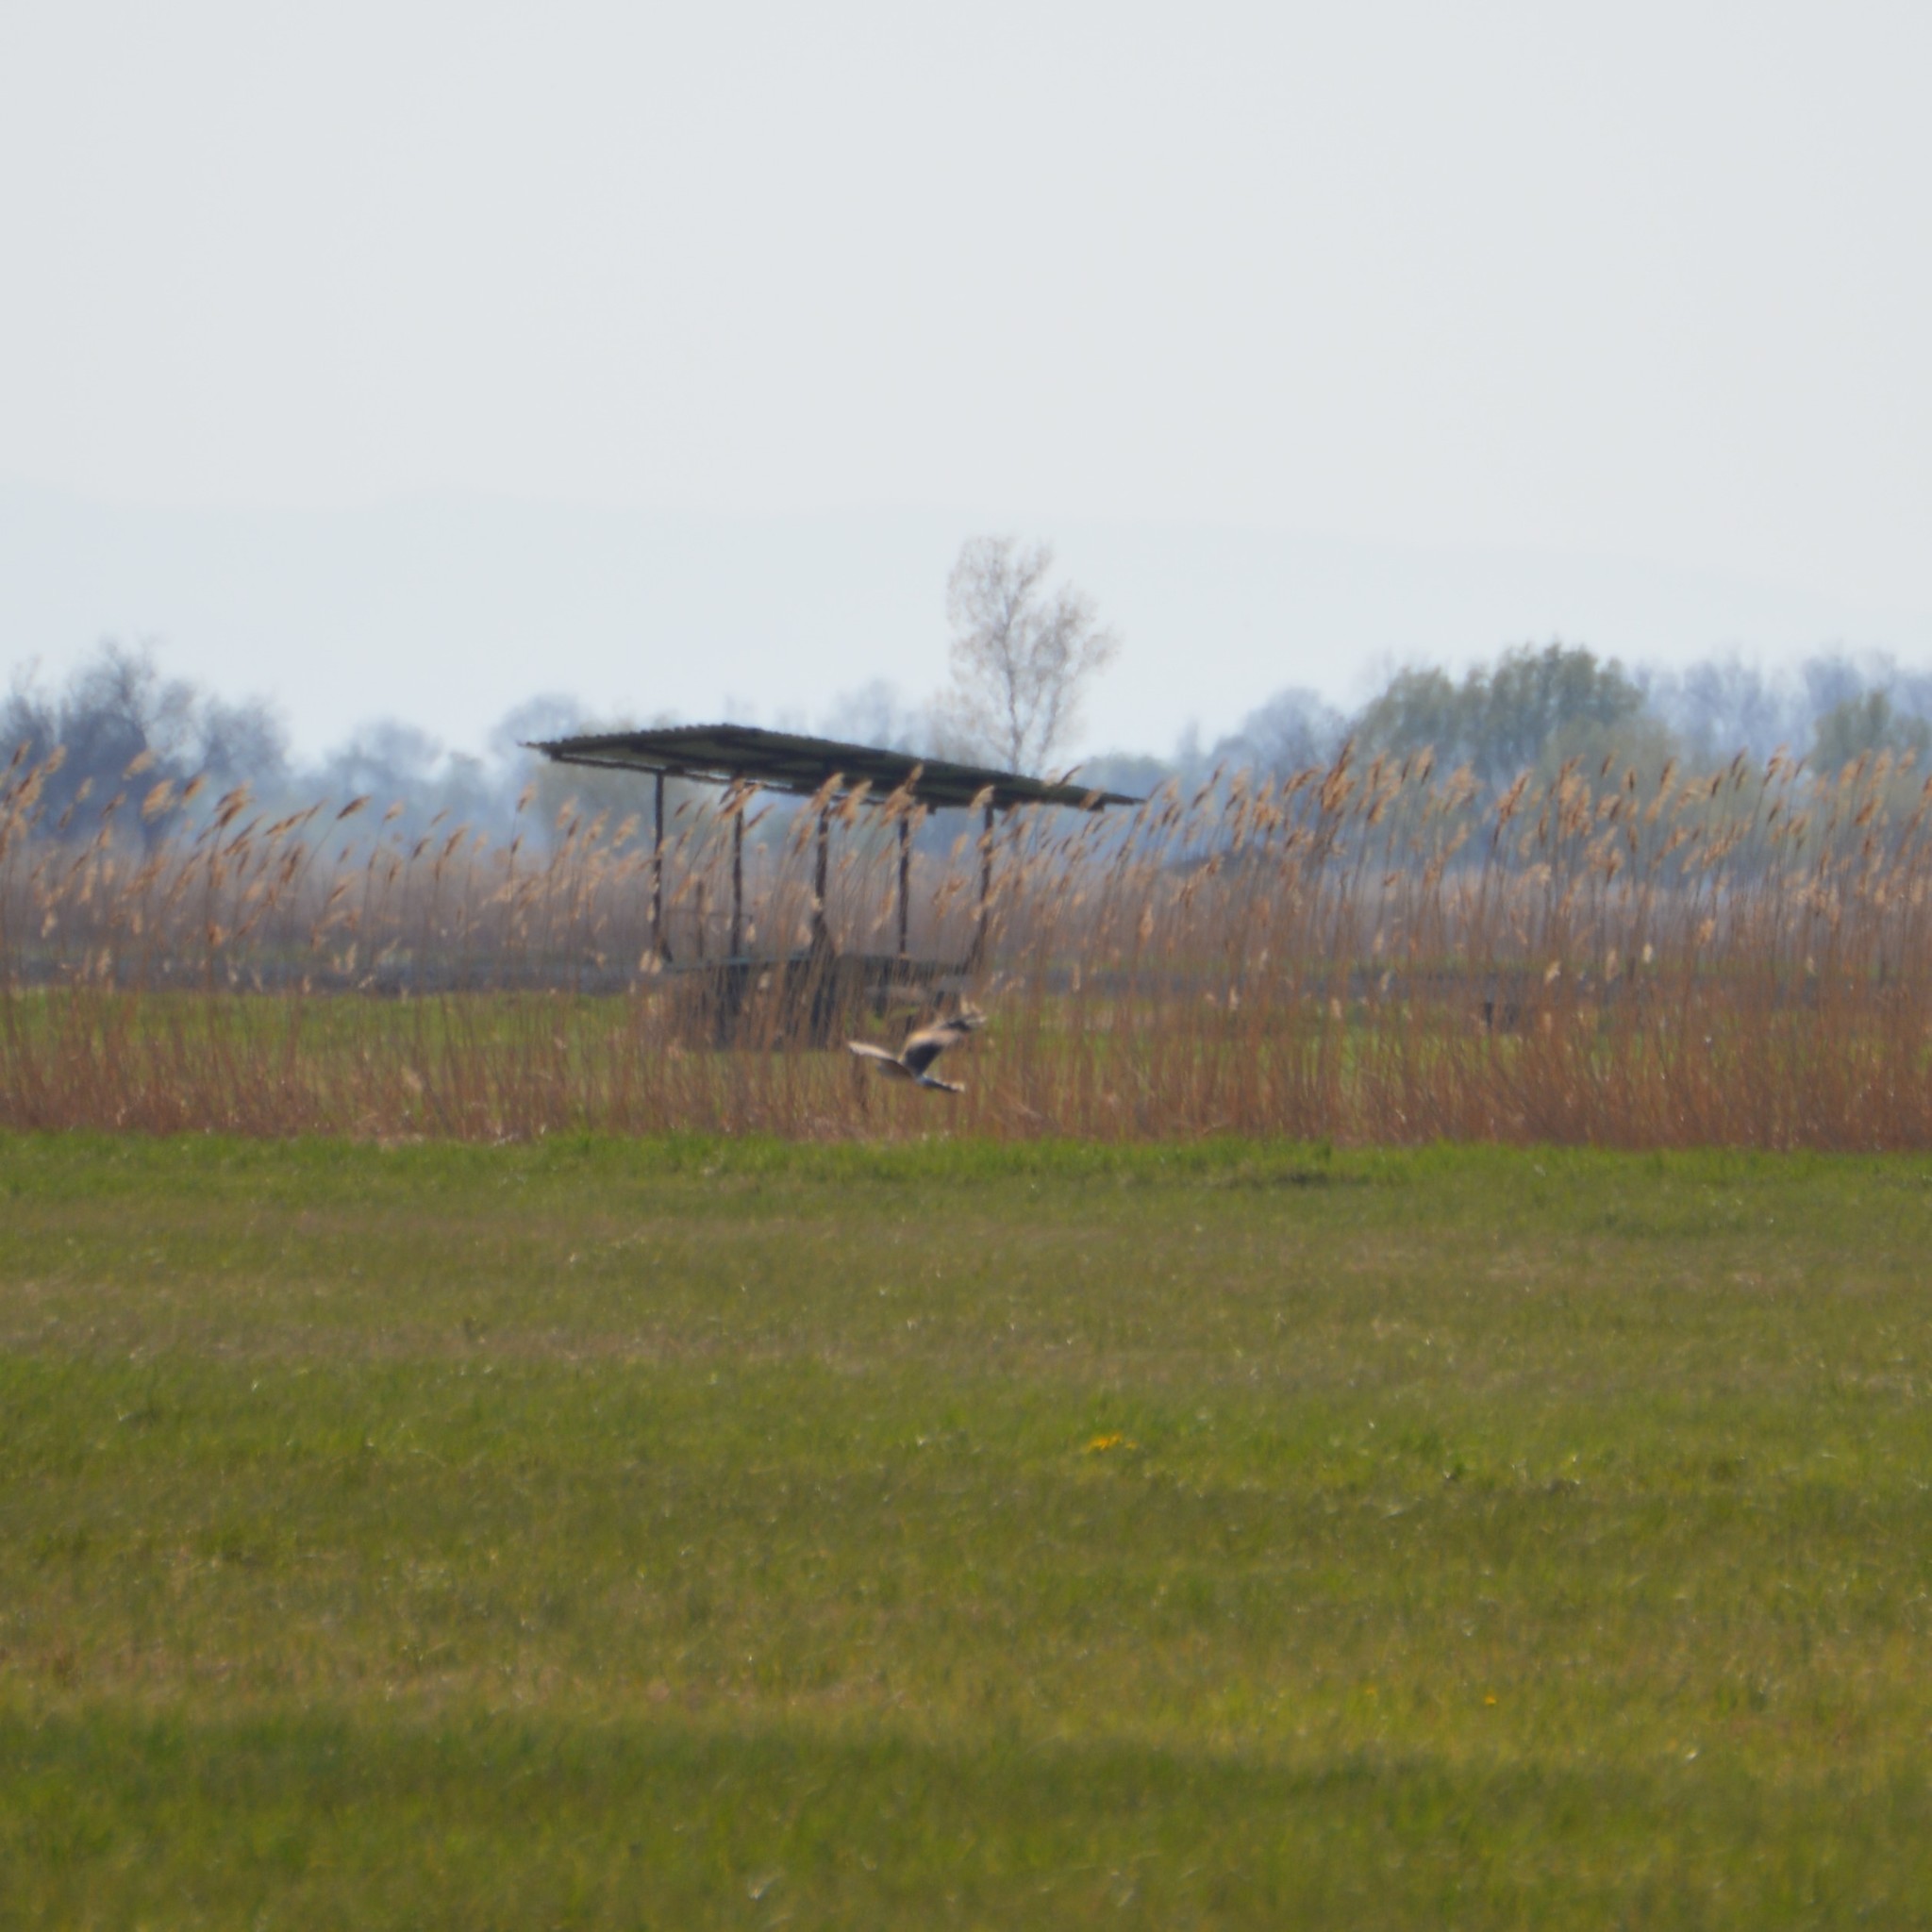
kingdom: Animalia
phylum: Chordata
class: Aves
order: Accipitriformes
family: Accipitridae
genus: Circus
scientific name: Circus cyaneus
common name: Hen harrier
